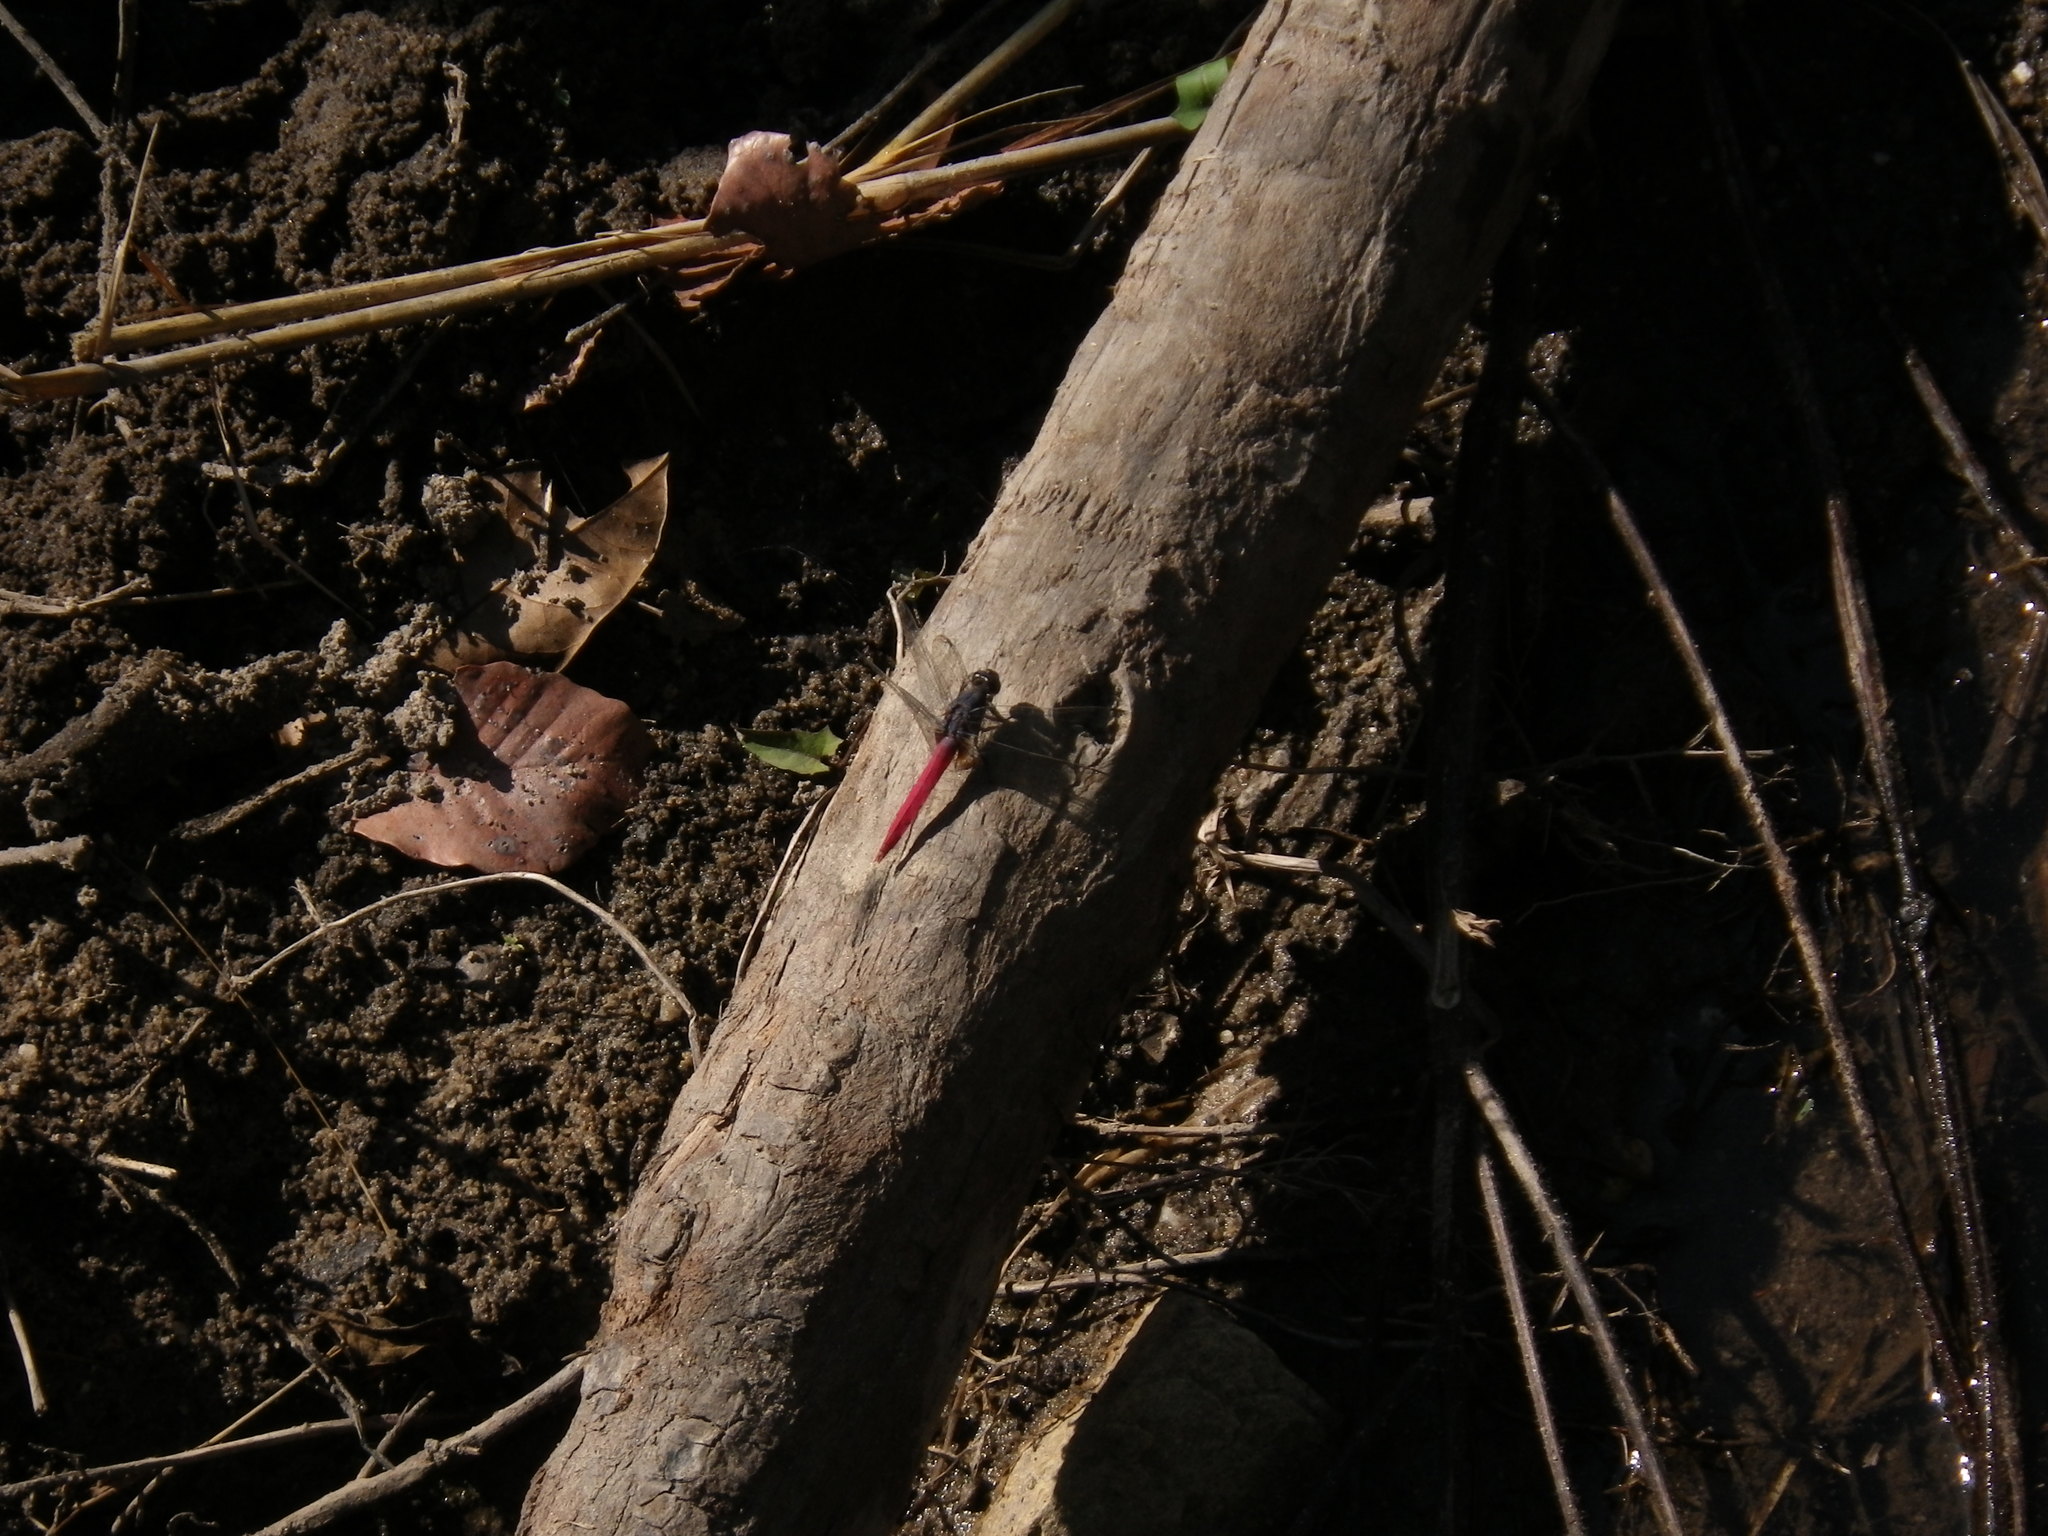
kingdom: Animalia
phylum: Arthropoda
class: Insecta
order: Odonata
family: Libellulidae
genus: Orthetrum
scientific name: Orthetrum pruinosum
